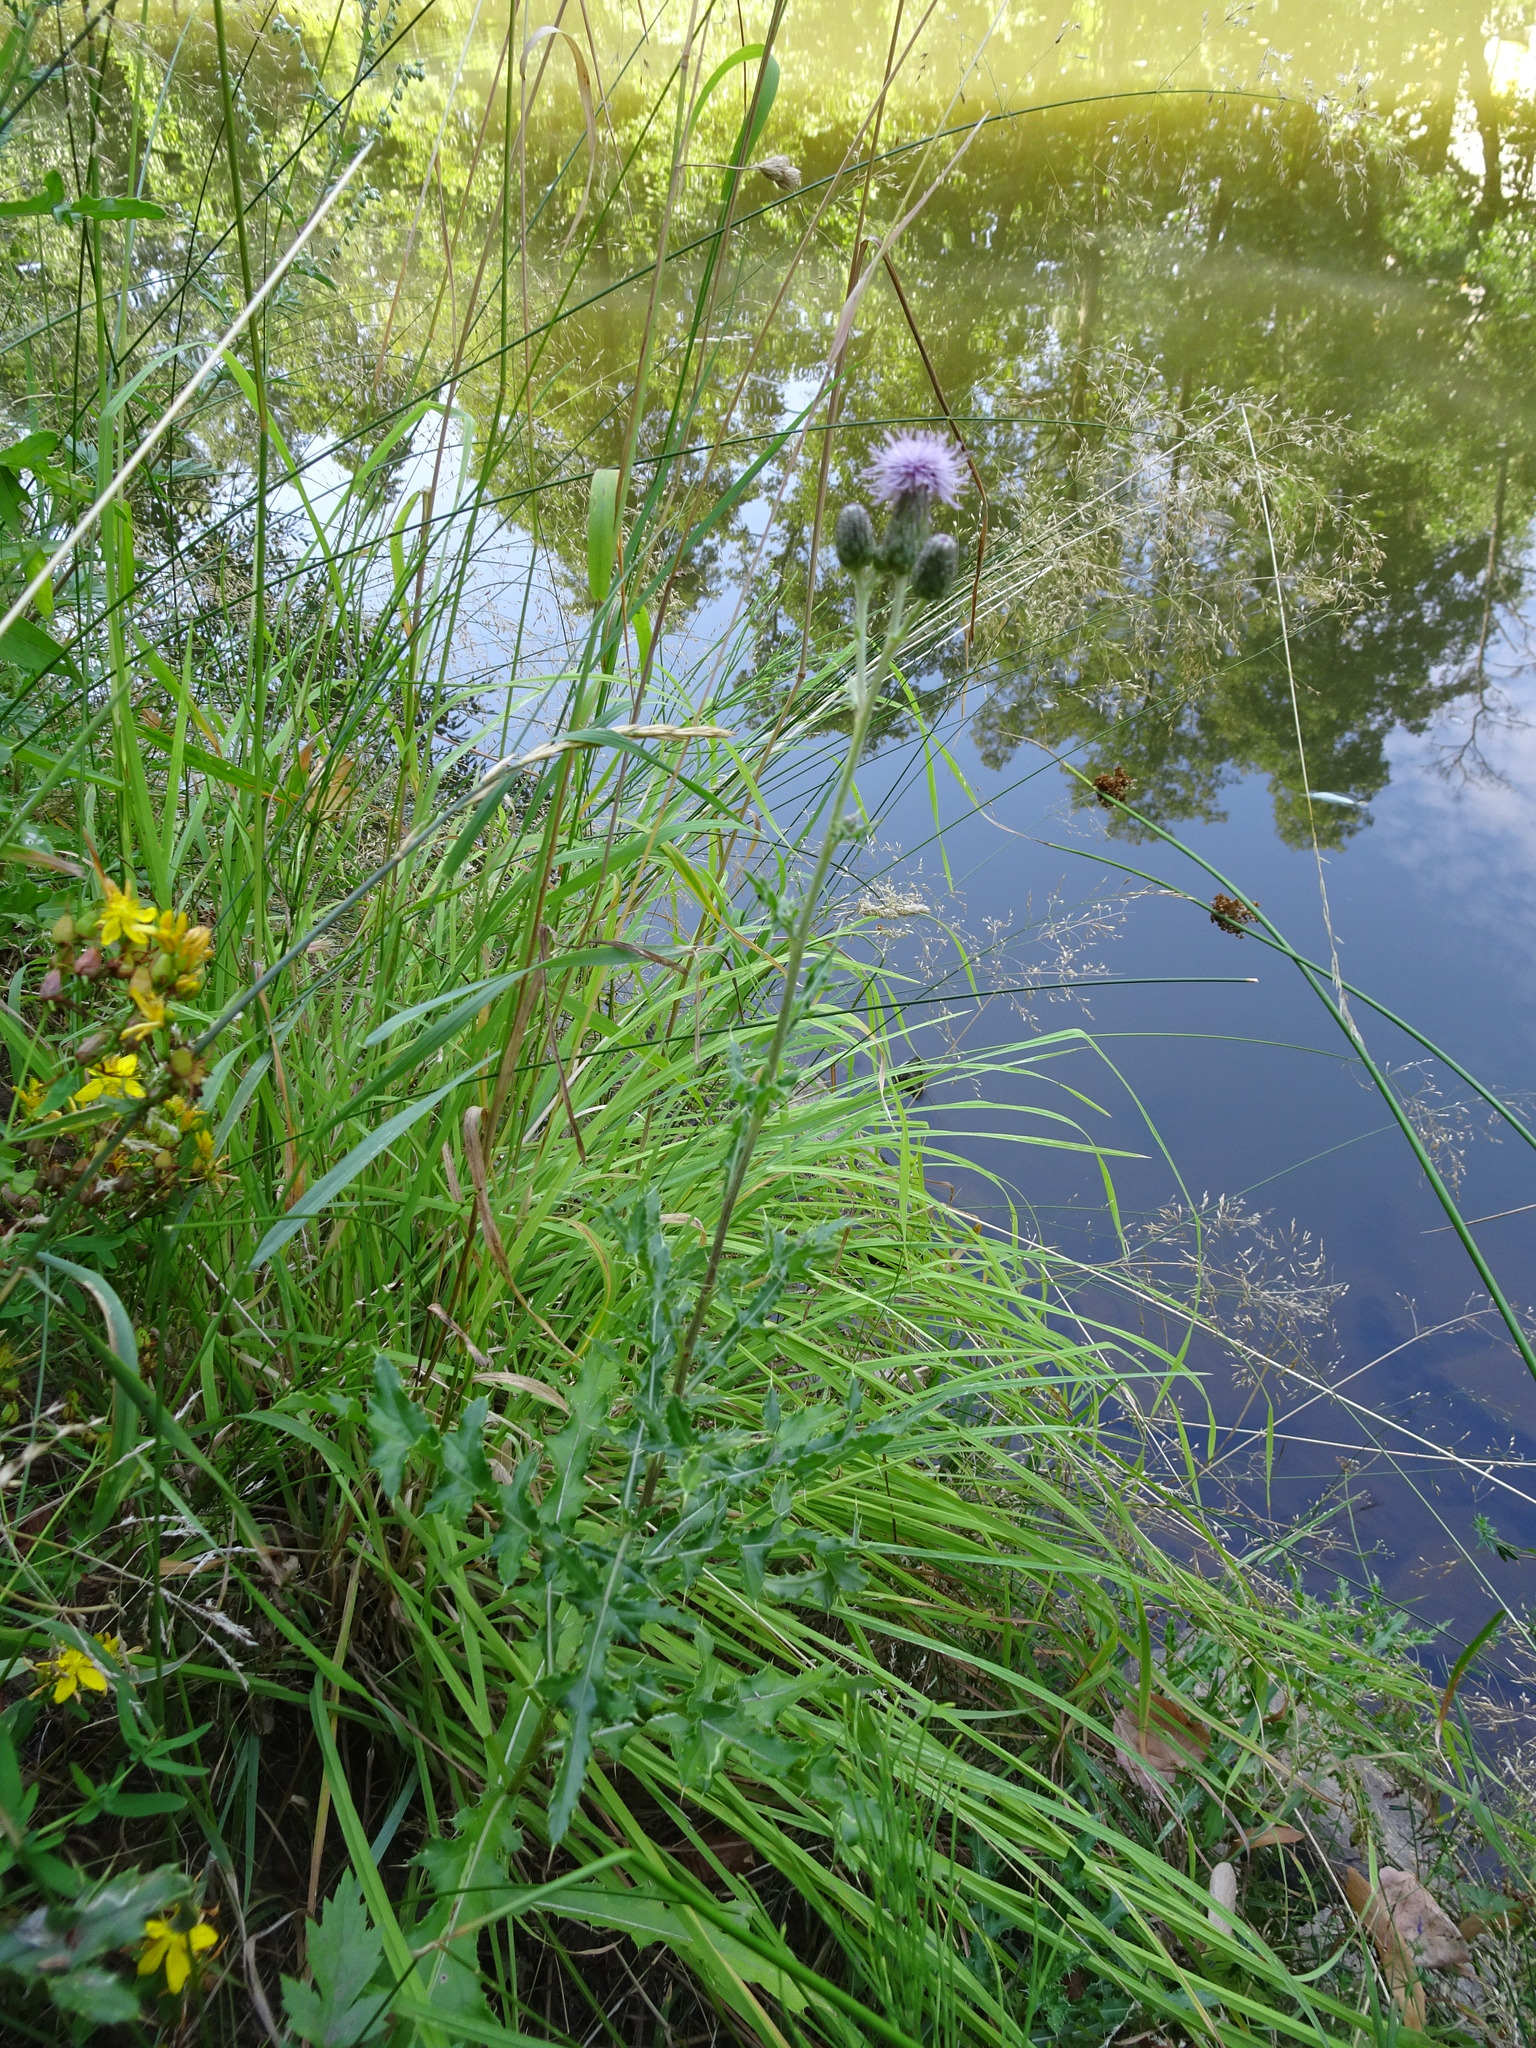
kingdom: Plantae
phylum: Tracheophyta
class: Magnoliopsida
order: Asterales
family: Asteraceae
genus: Cirsium
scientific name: Cirsium arvense
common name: Creeping thistle
